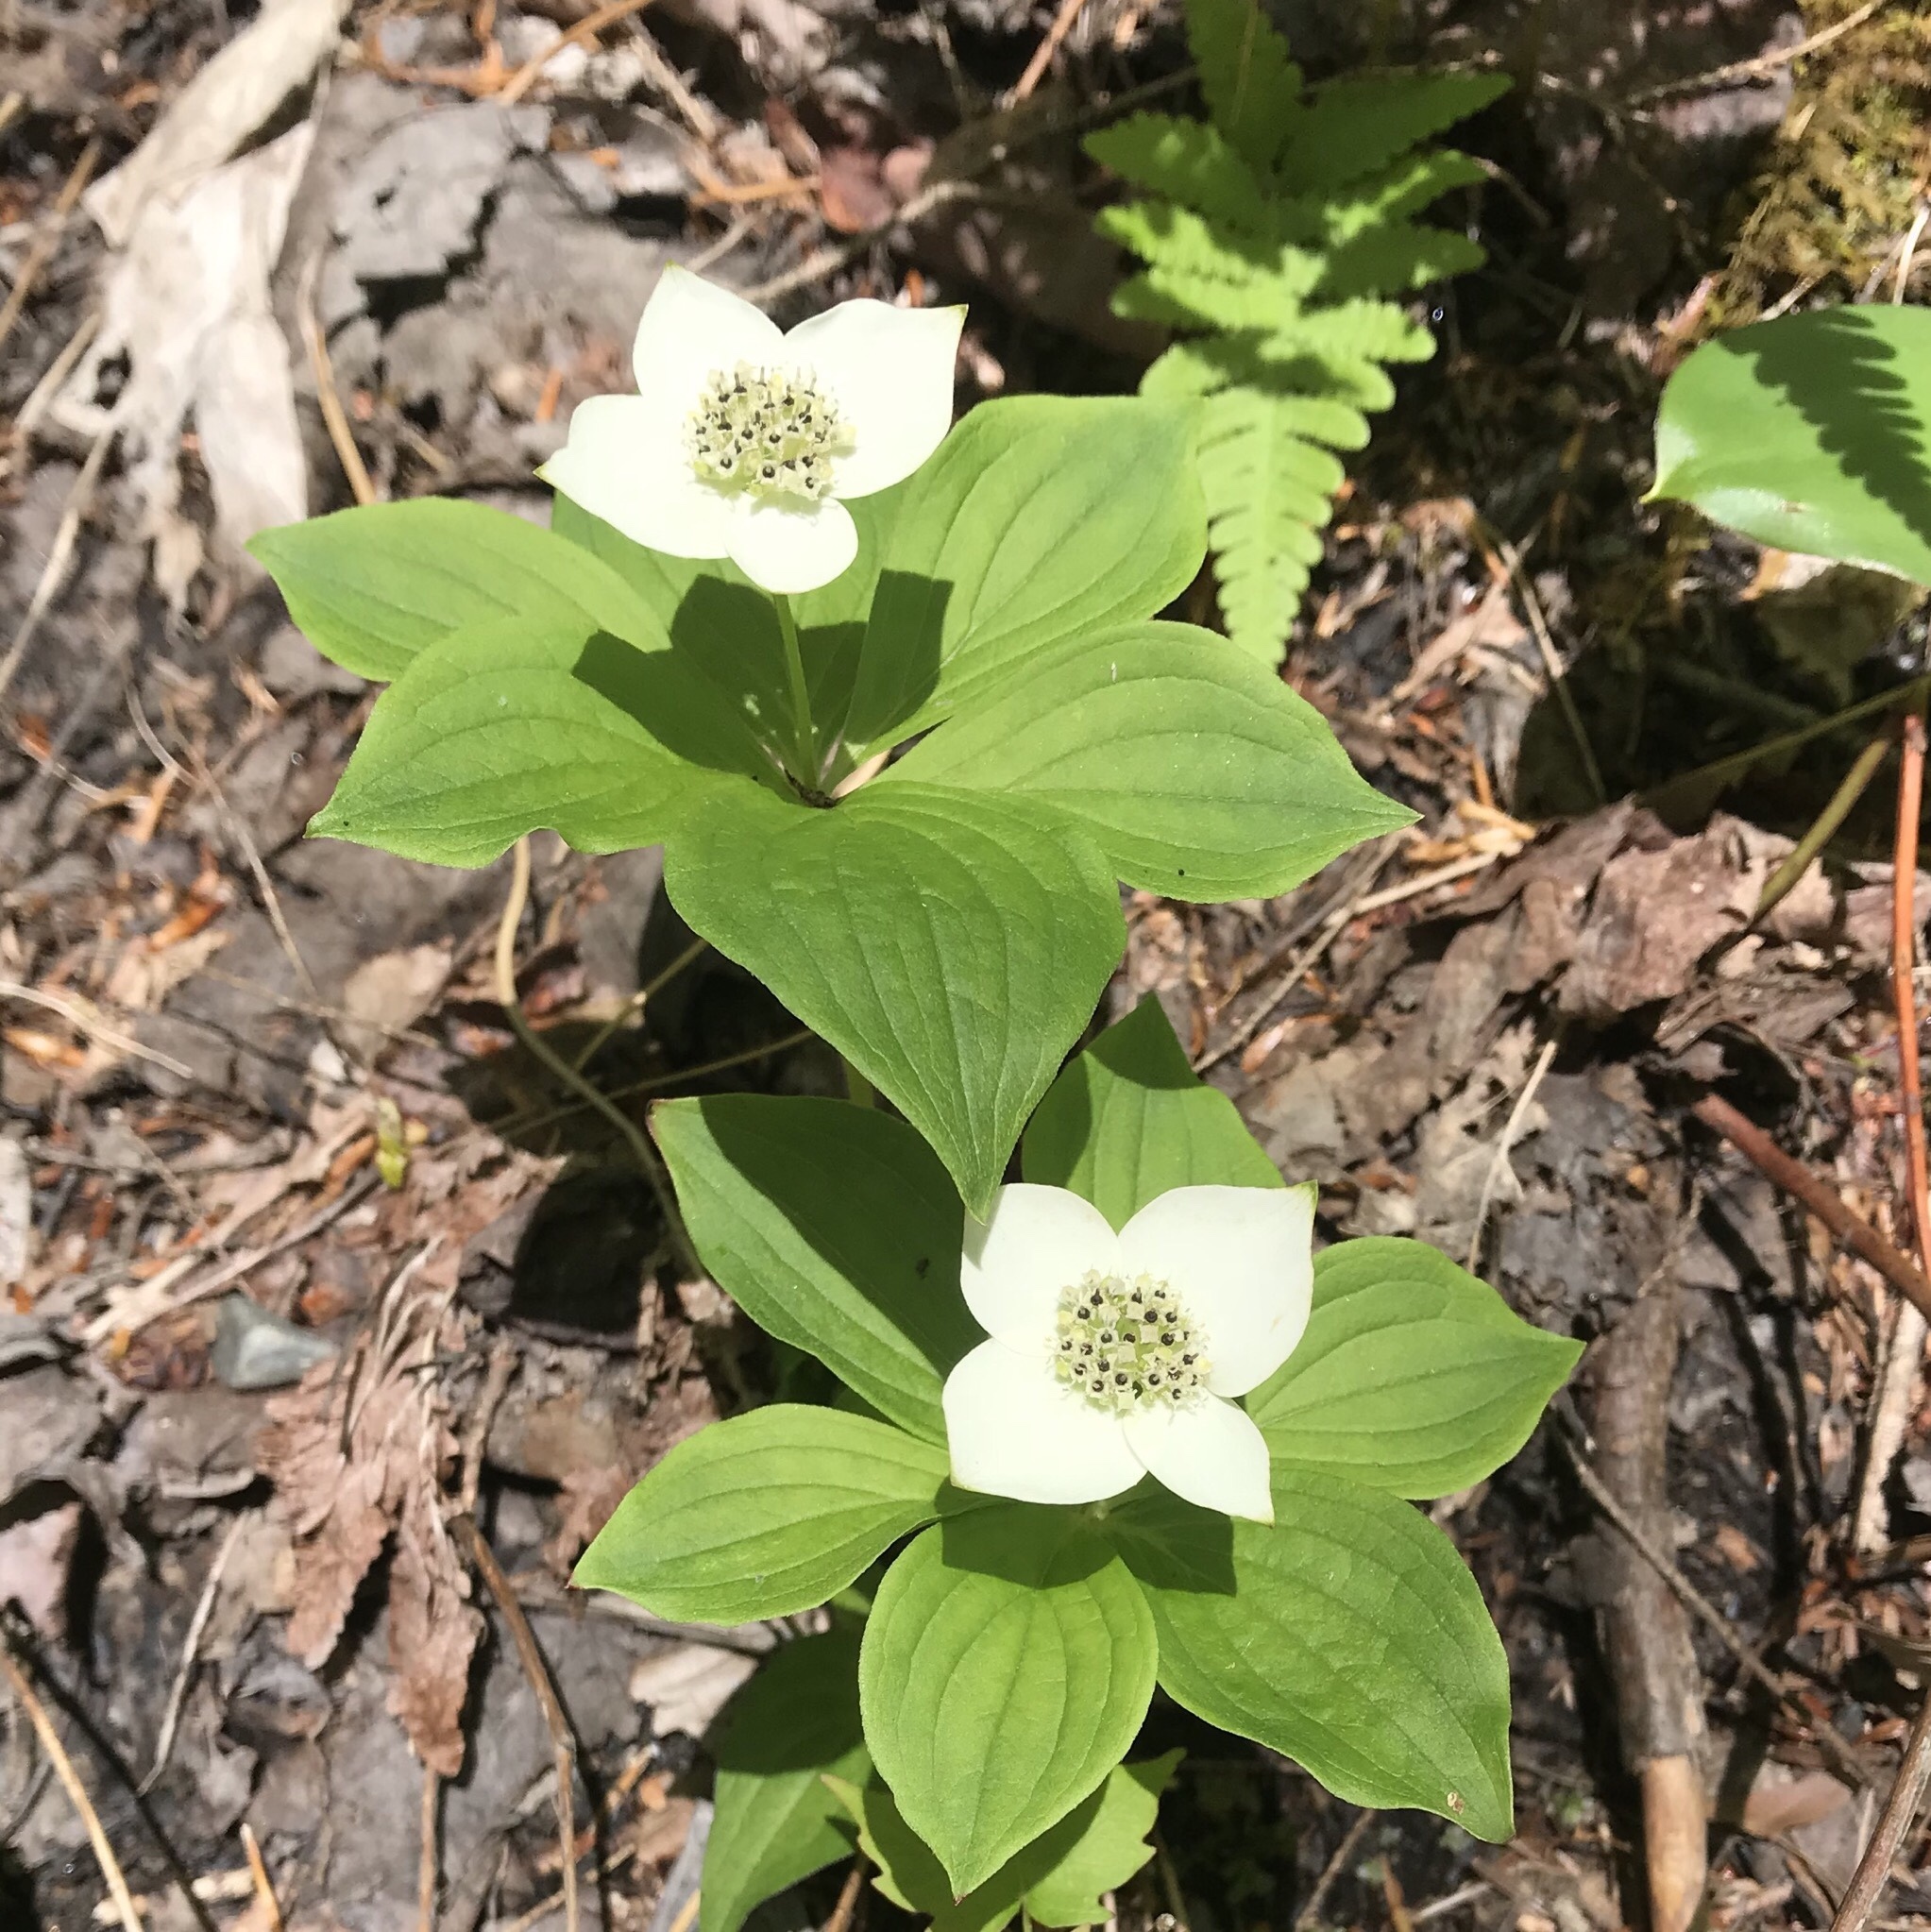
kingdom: Plantae
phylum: Tracheophyta
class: Magnoliopsida
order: Cornales
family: Cornaceae
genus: Cornus
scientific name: Cornus canadensis
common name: Creeping dogwood
